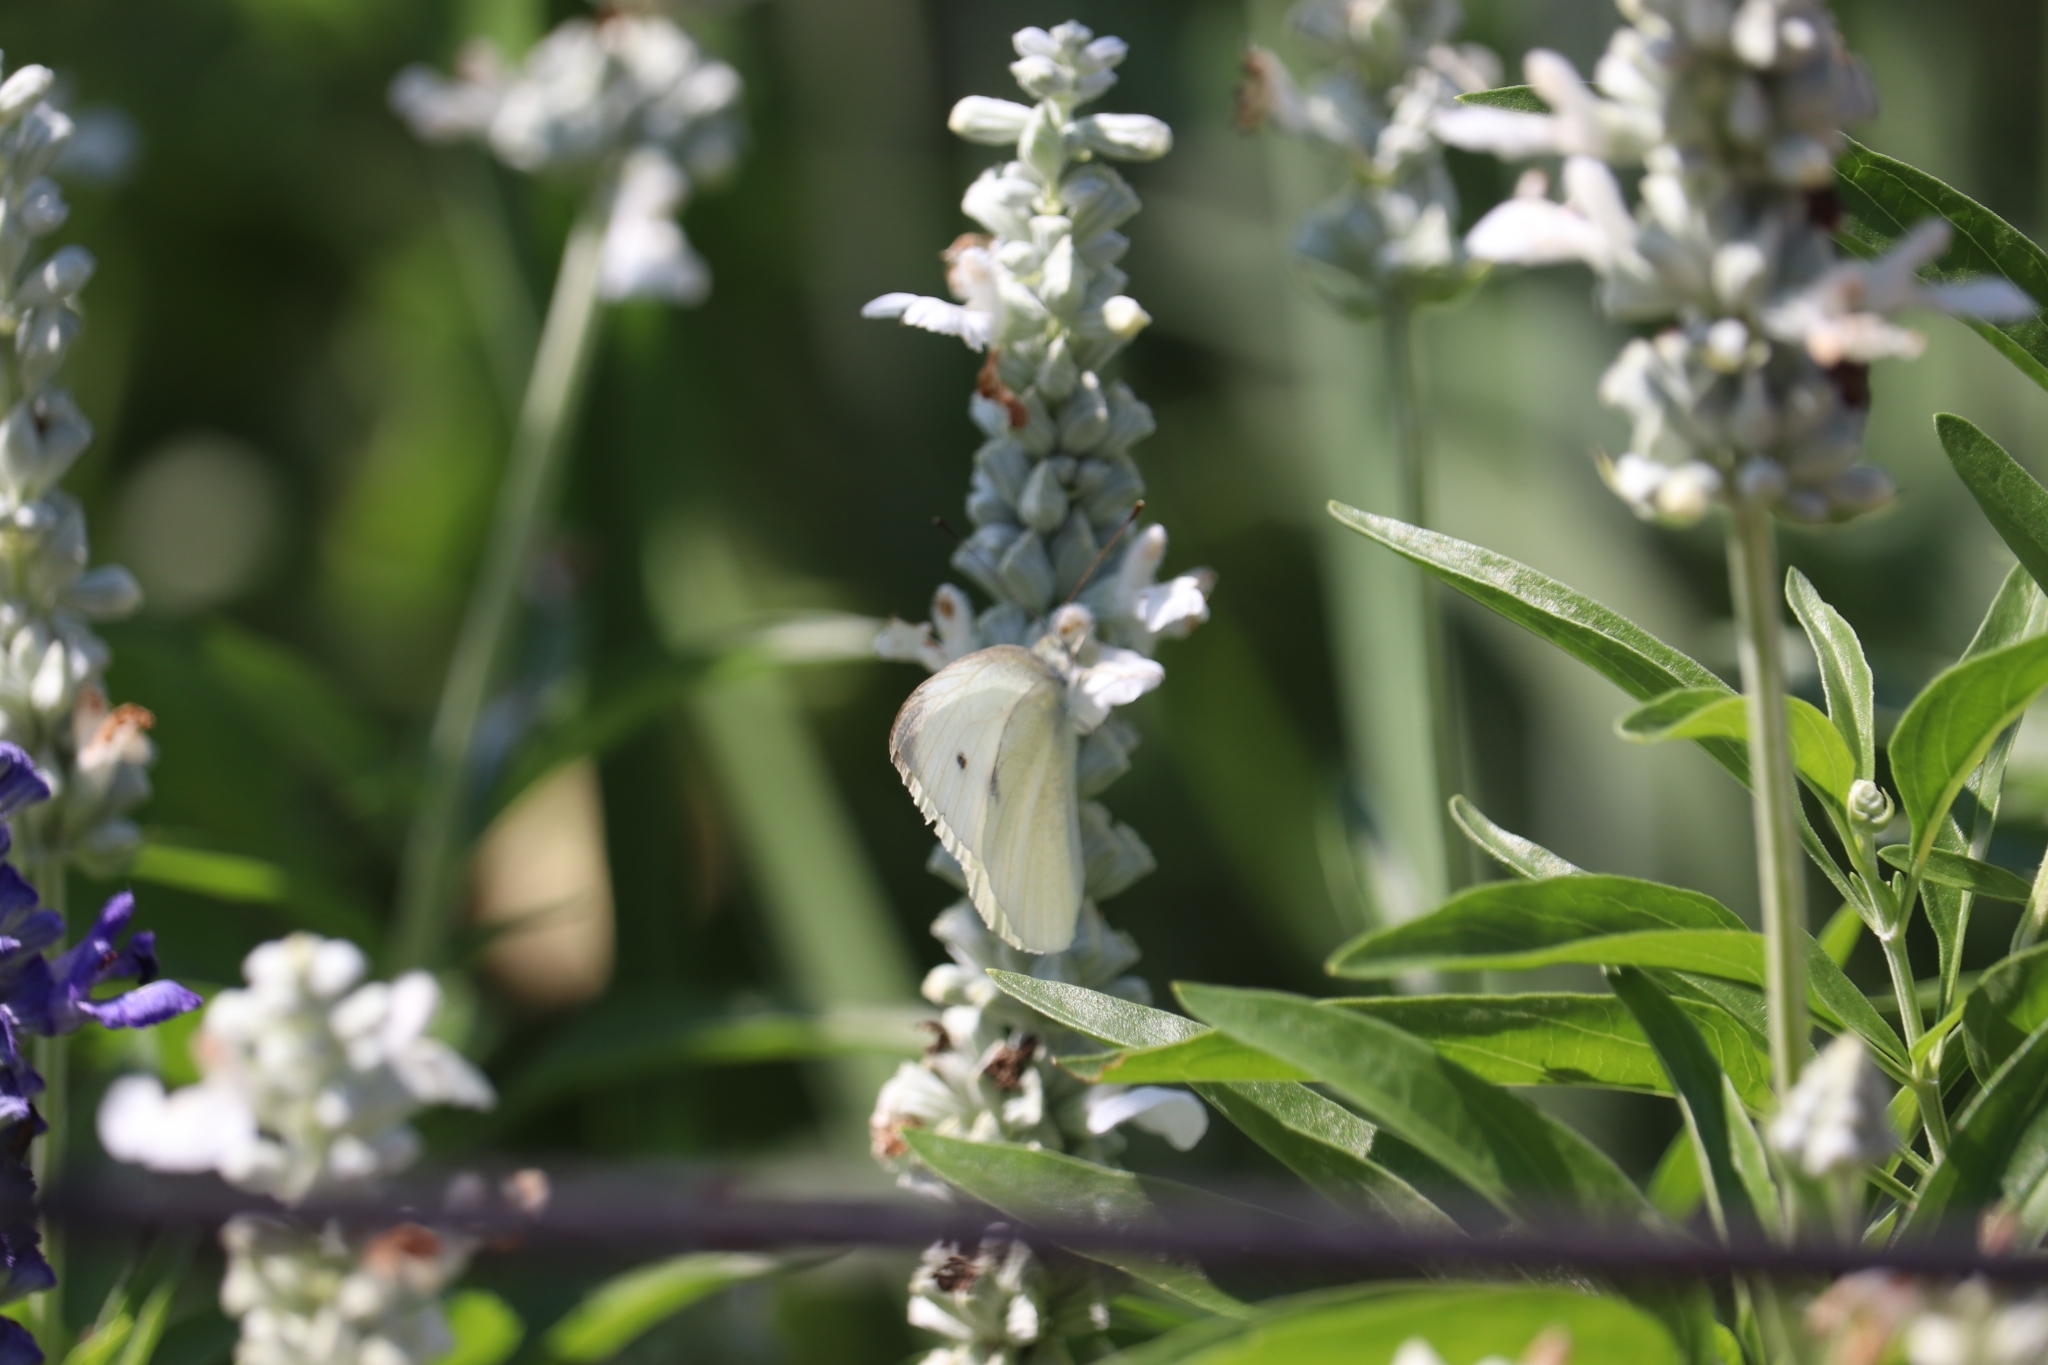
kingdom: Animalia
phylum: Arthropoda
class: Insecta
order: Lepidoptera
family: Pieridae
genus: Pieris
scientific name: Pieris rapae
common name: Small white
